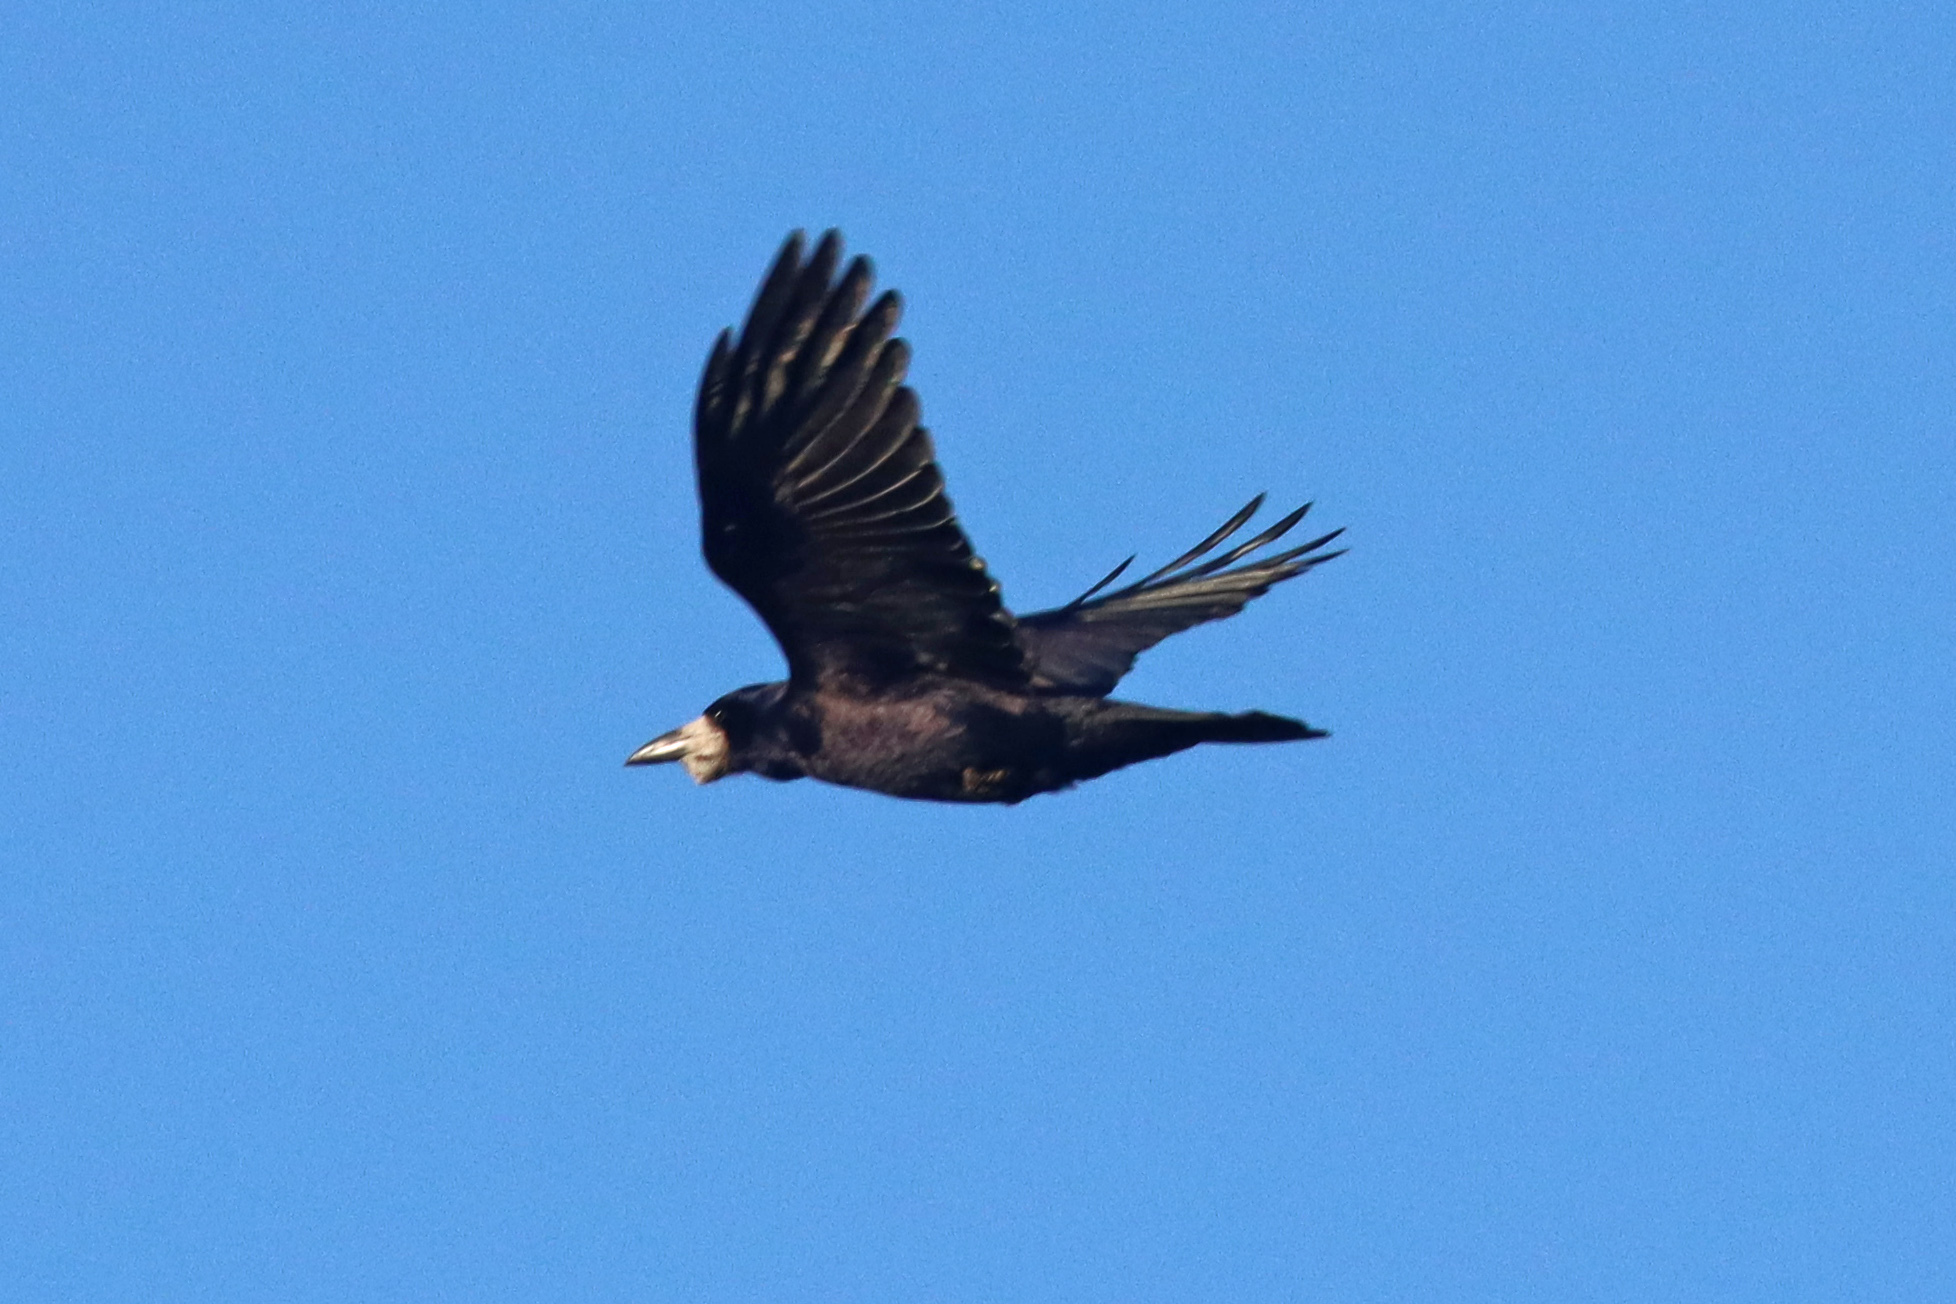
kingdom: Animalia
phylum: Chordata
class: Aves
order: Passeriformes
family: Corvidae
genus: Corvus
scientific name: Corvus frugilegus
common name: Rook
